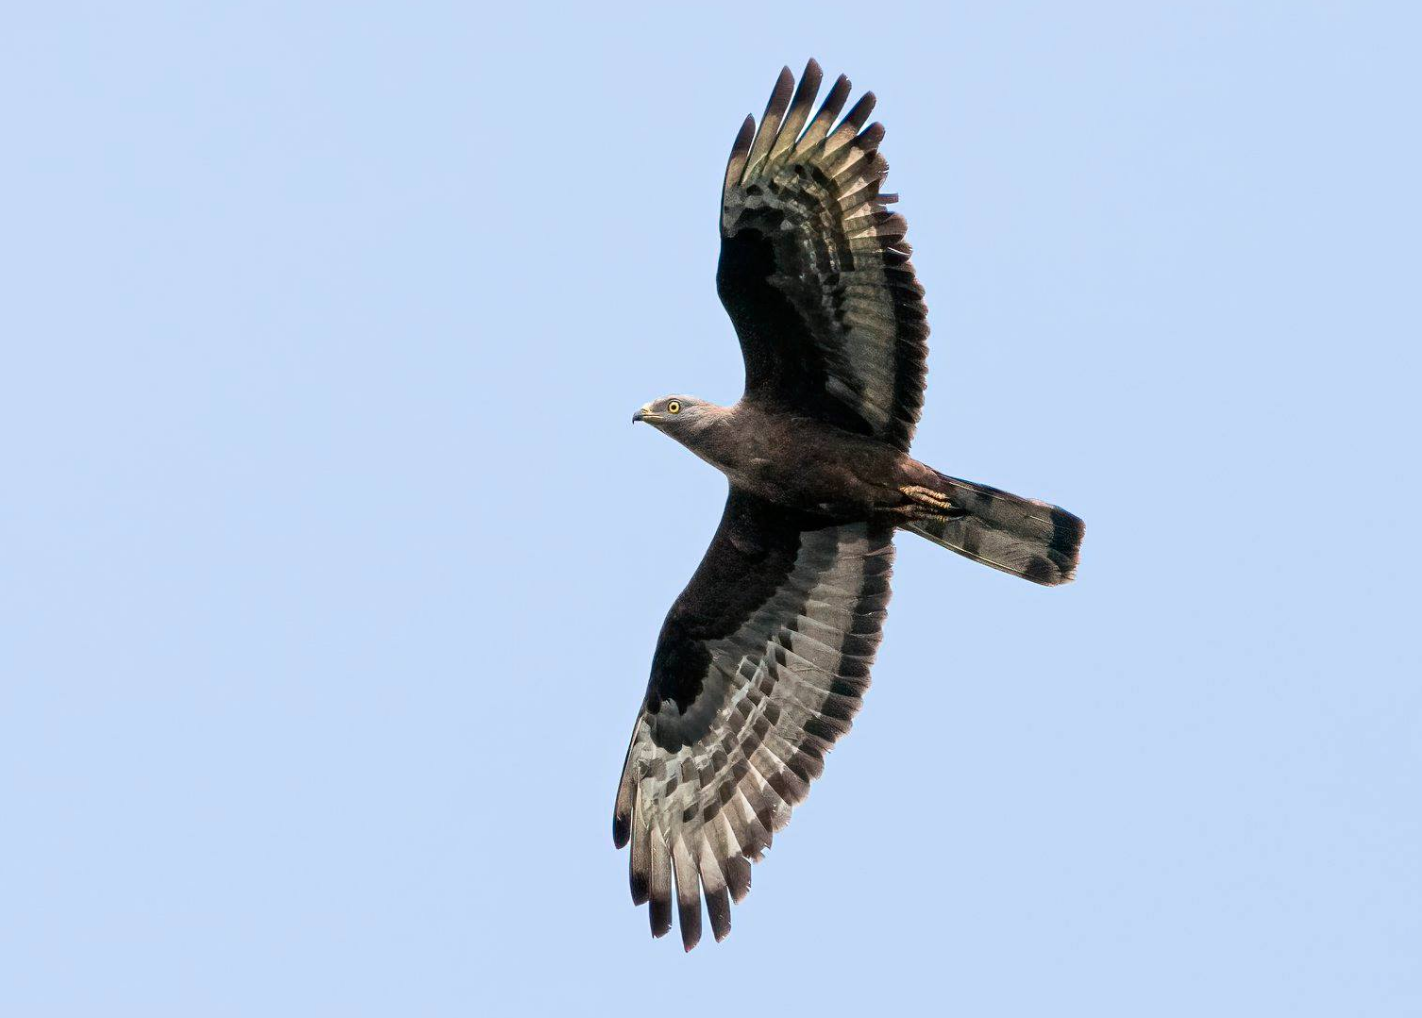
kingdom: Animalia
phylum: Chordata
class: Aves
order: Accipitriformes
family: Accipitridae
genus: Pernis
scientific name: Pernis apivorus
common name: European honey buzzard
